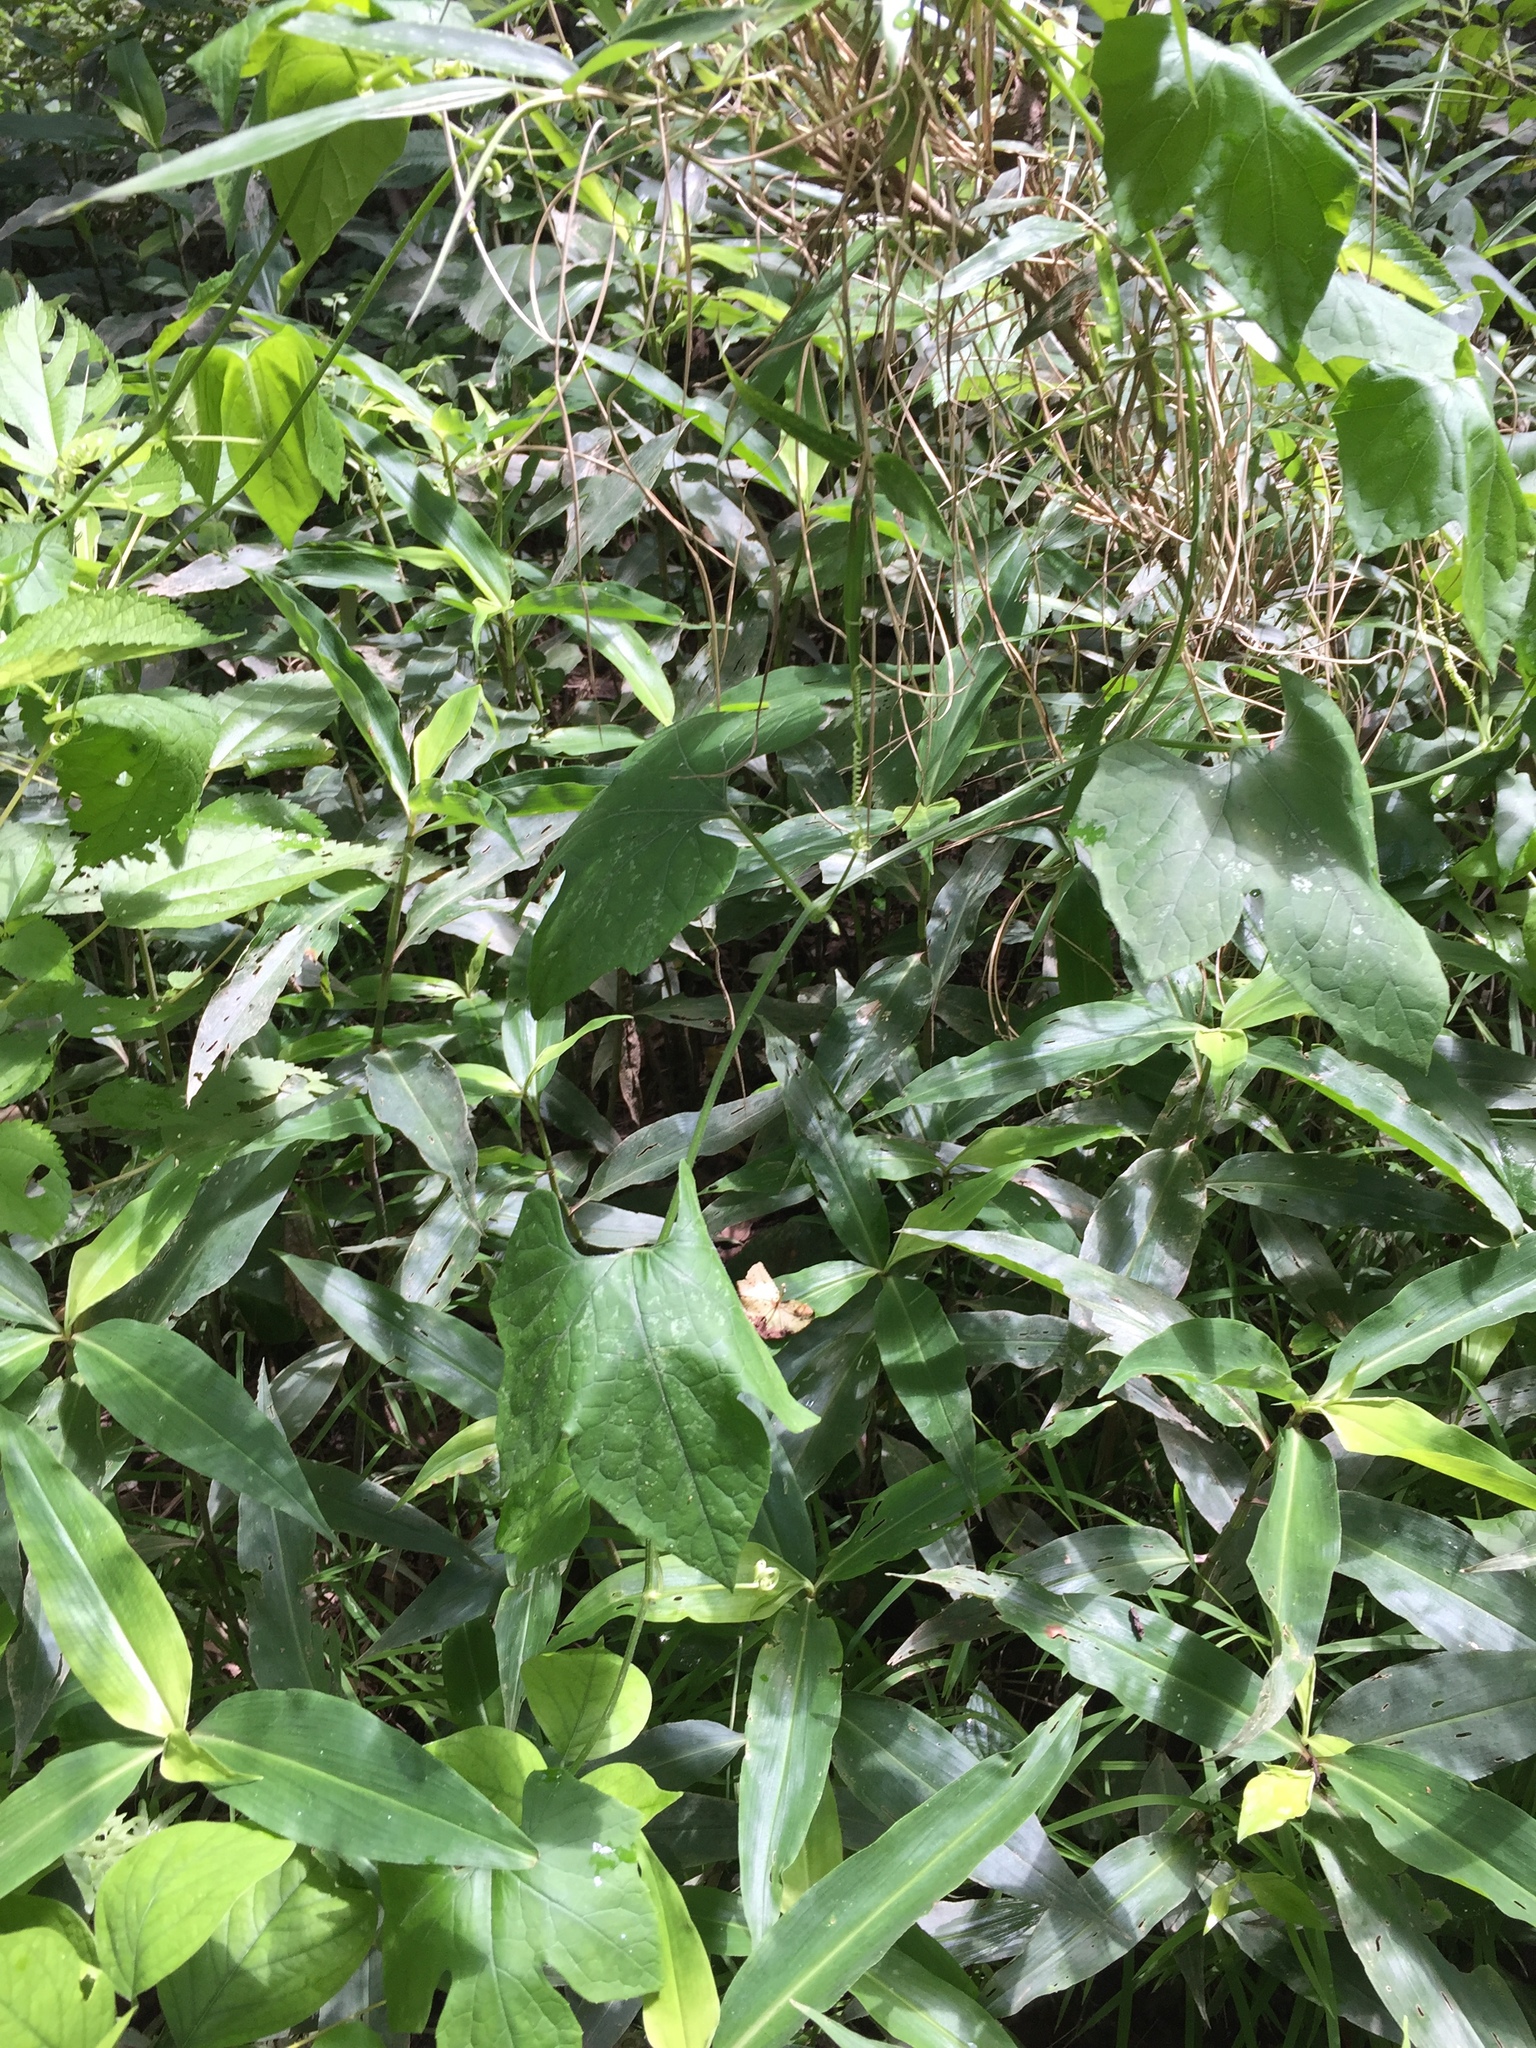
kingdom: Plantae
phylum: Tracheophyta
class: Magnoliopsida
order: Cucurbitales
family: Cucurbitaceae
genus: Cayaponia
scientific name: Cayaponia quinqueloba
